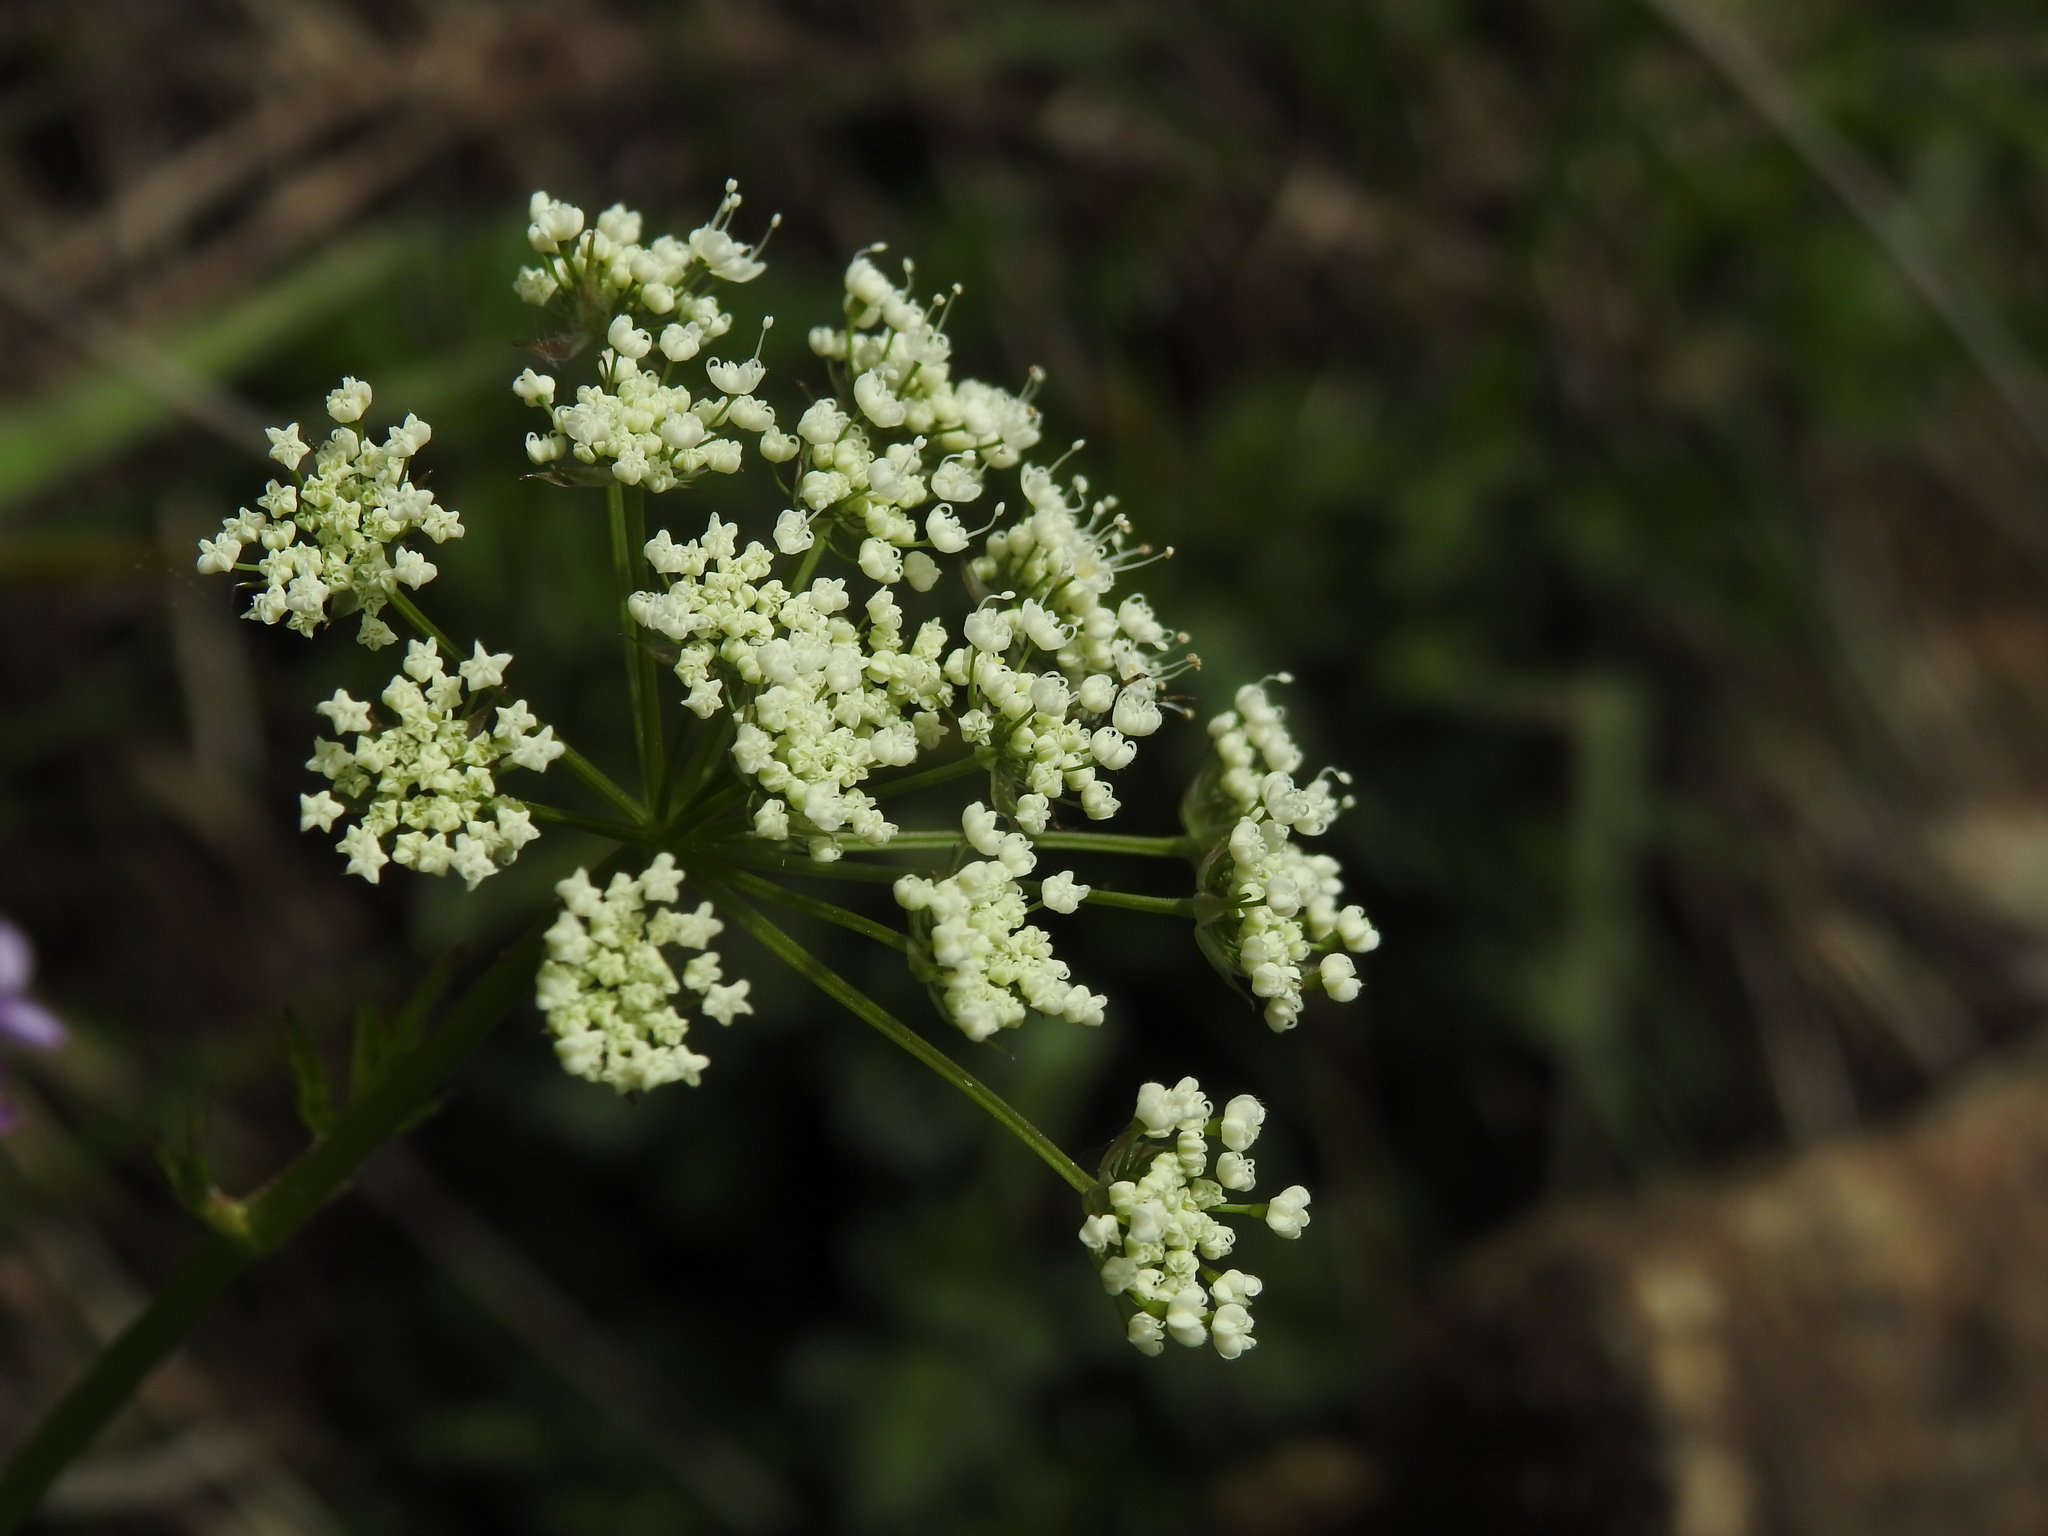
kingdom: Plantae
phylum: Tracheophyta
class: Magnoliopsida
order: Apiales
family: Apiaceae
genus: Chaerophyllum
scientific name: Chaerophyllum hirsutum
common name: Hairy chervil
